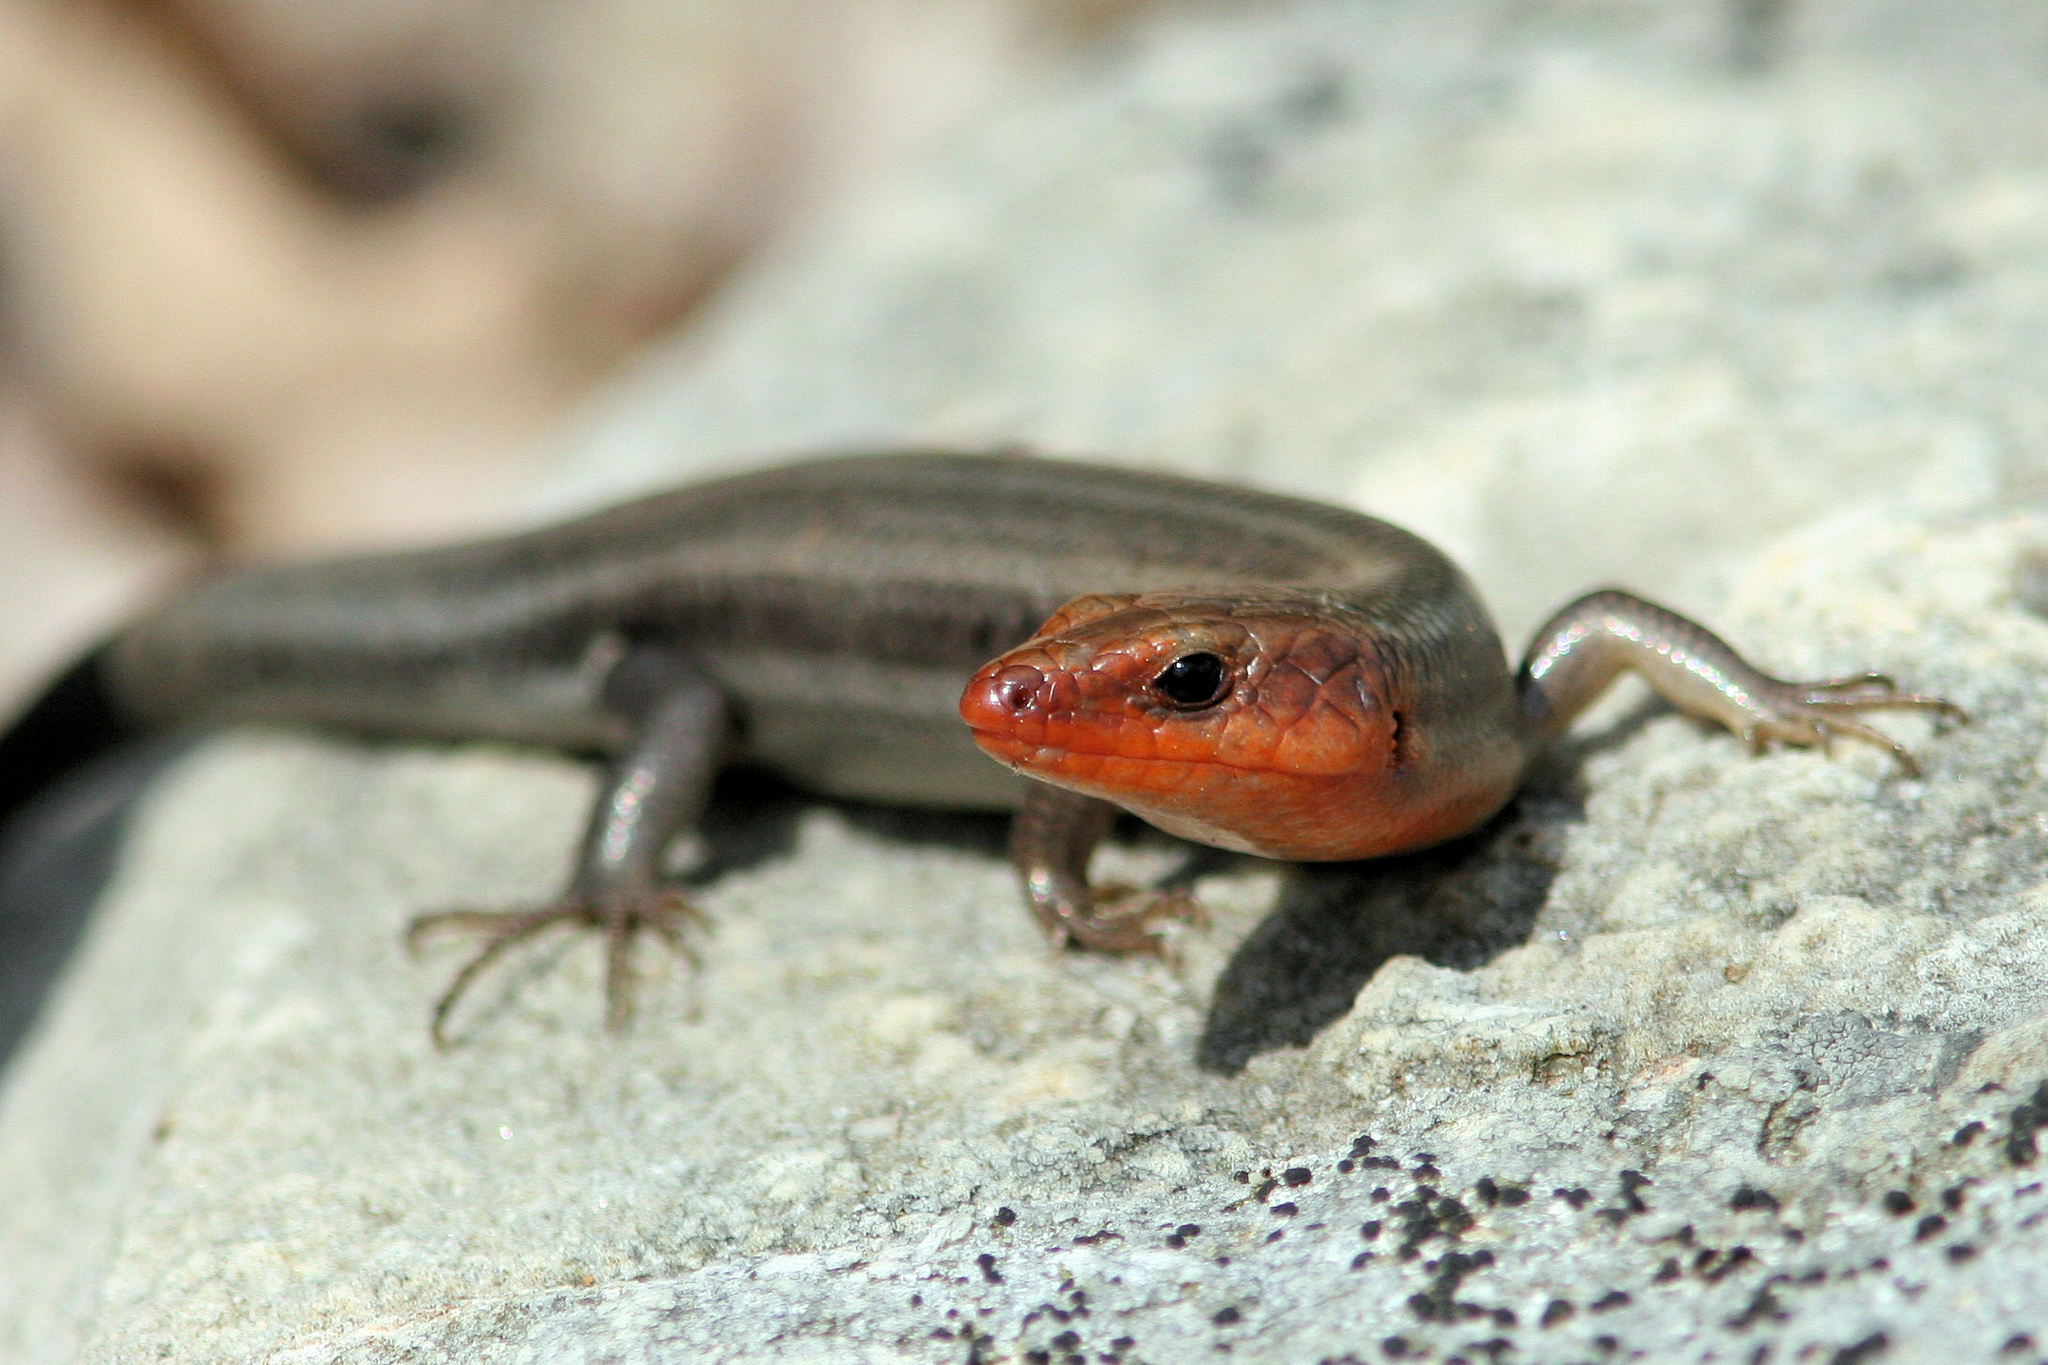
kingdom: Animalia
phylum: Chordata
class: Squamata
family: Scincidae
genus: Plestiodon
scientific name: Plestiodon fasciatus
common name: Five-lined skink
